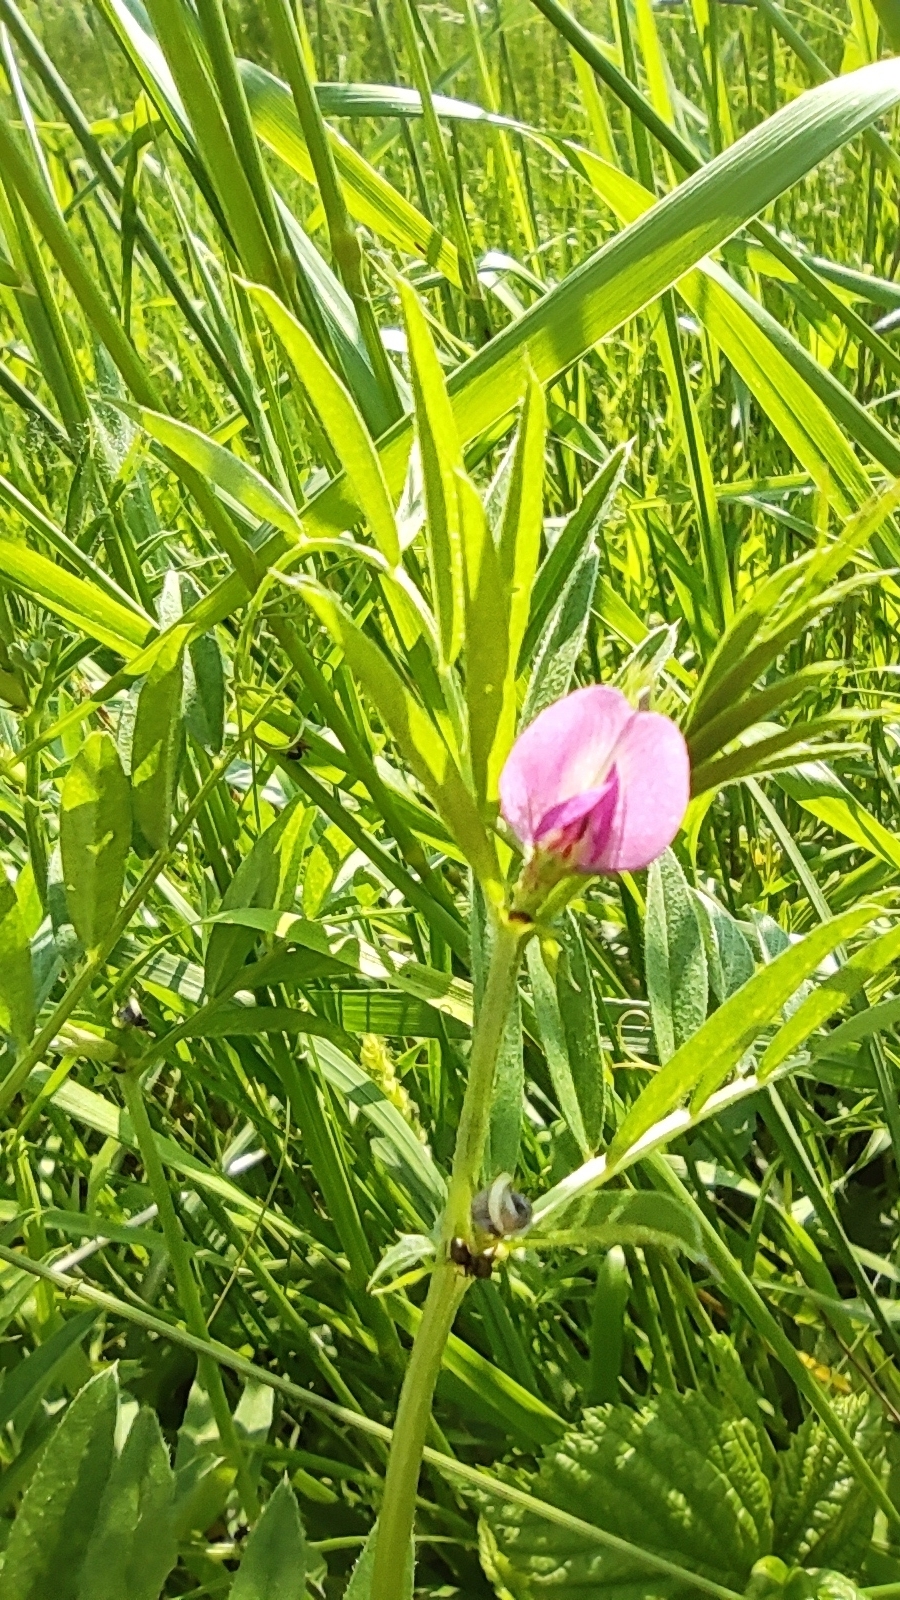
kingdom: Plantae
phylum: Tracheophyta
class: Magnoliopsida
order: Fabales
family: Fabaceae
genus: Vicia
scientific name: Vicia sativa
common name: Garden vetch
